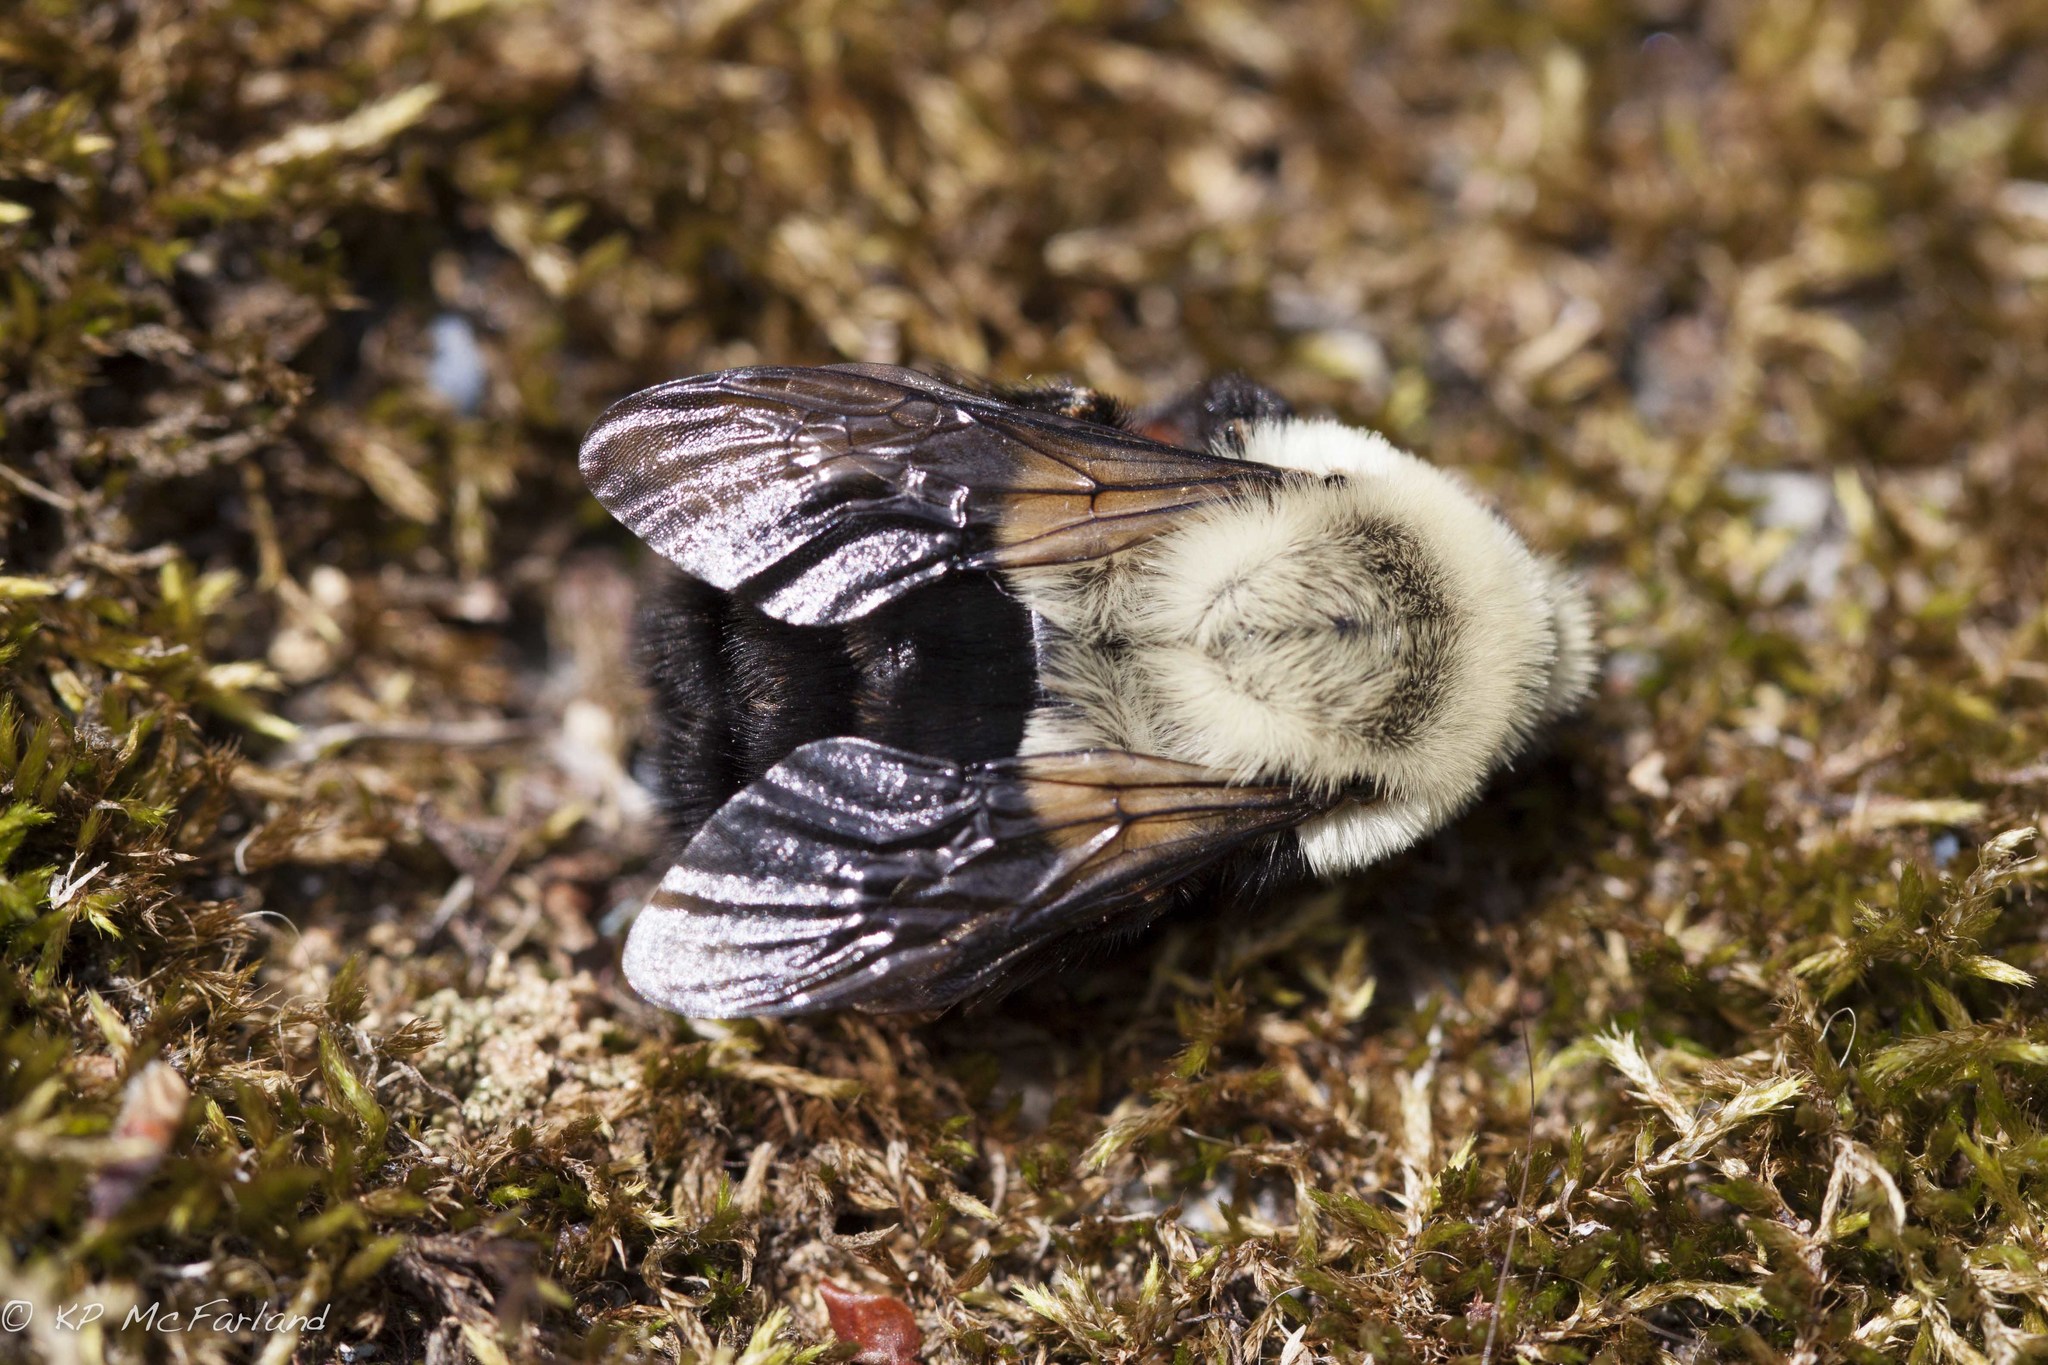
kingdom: Animalia
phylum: Arthropoda
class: Insecta
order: Hymenoptera
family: Apidae
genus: Bombus
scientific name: Bombus impatiens
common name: Common eastern bumble bee
